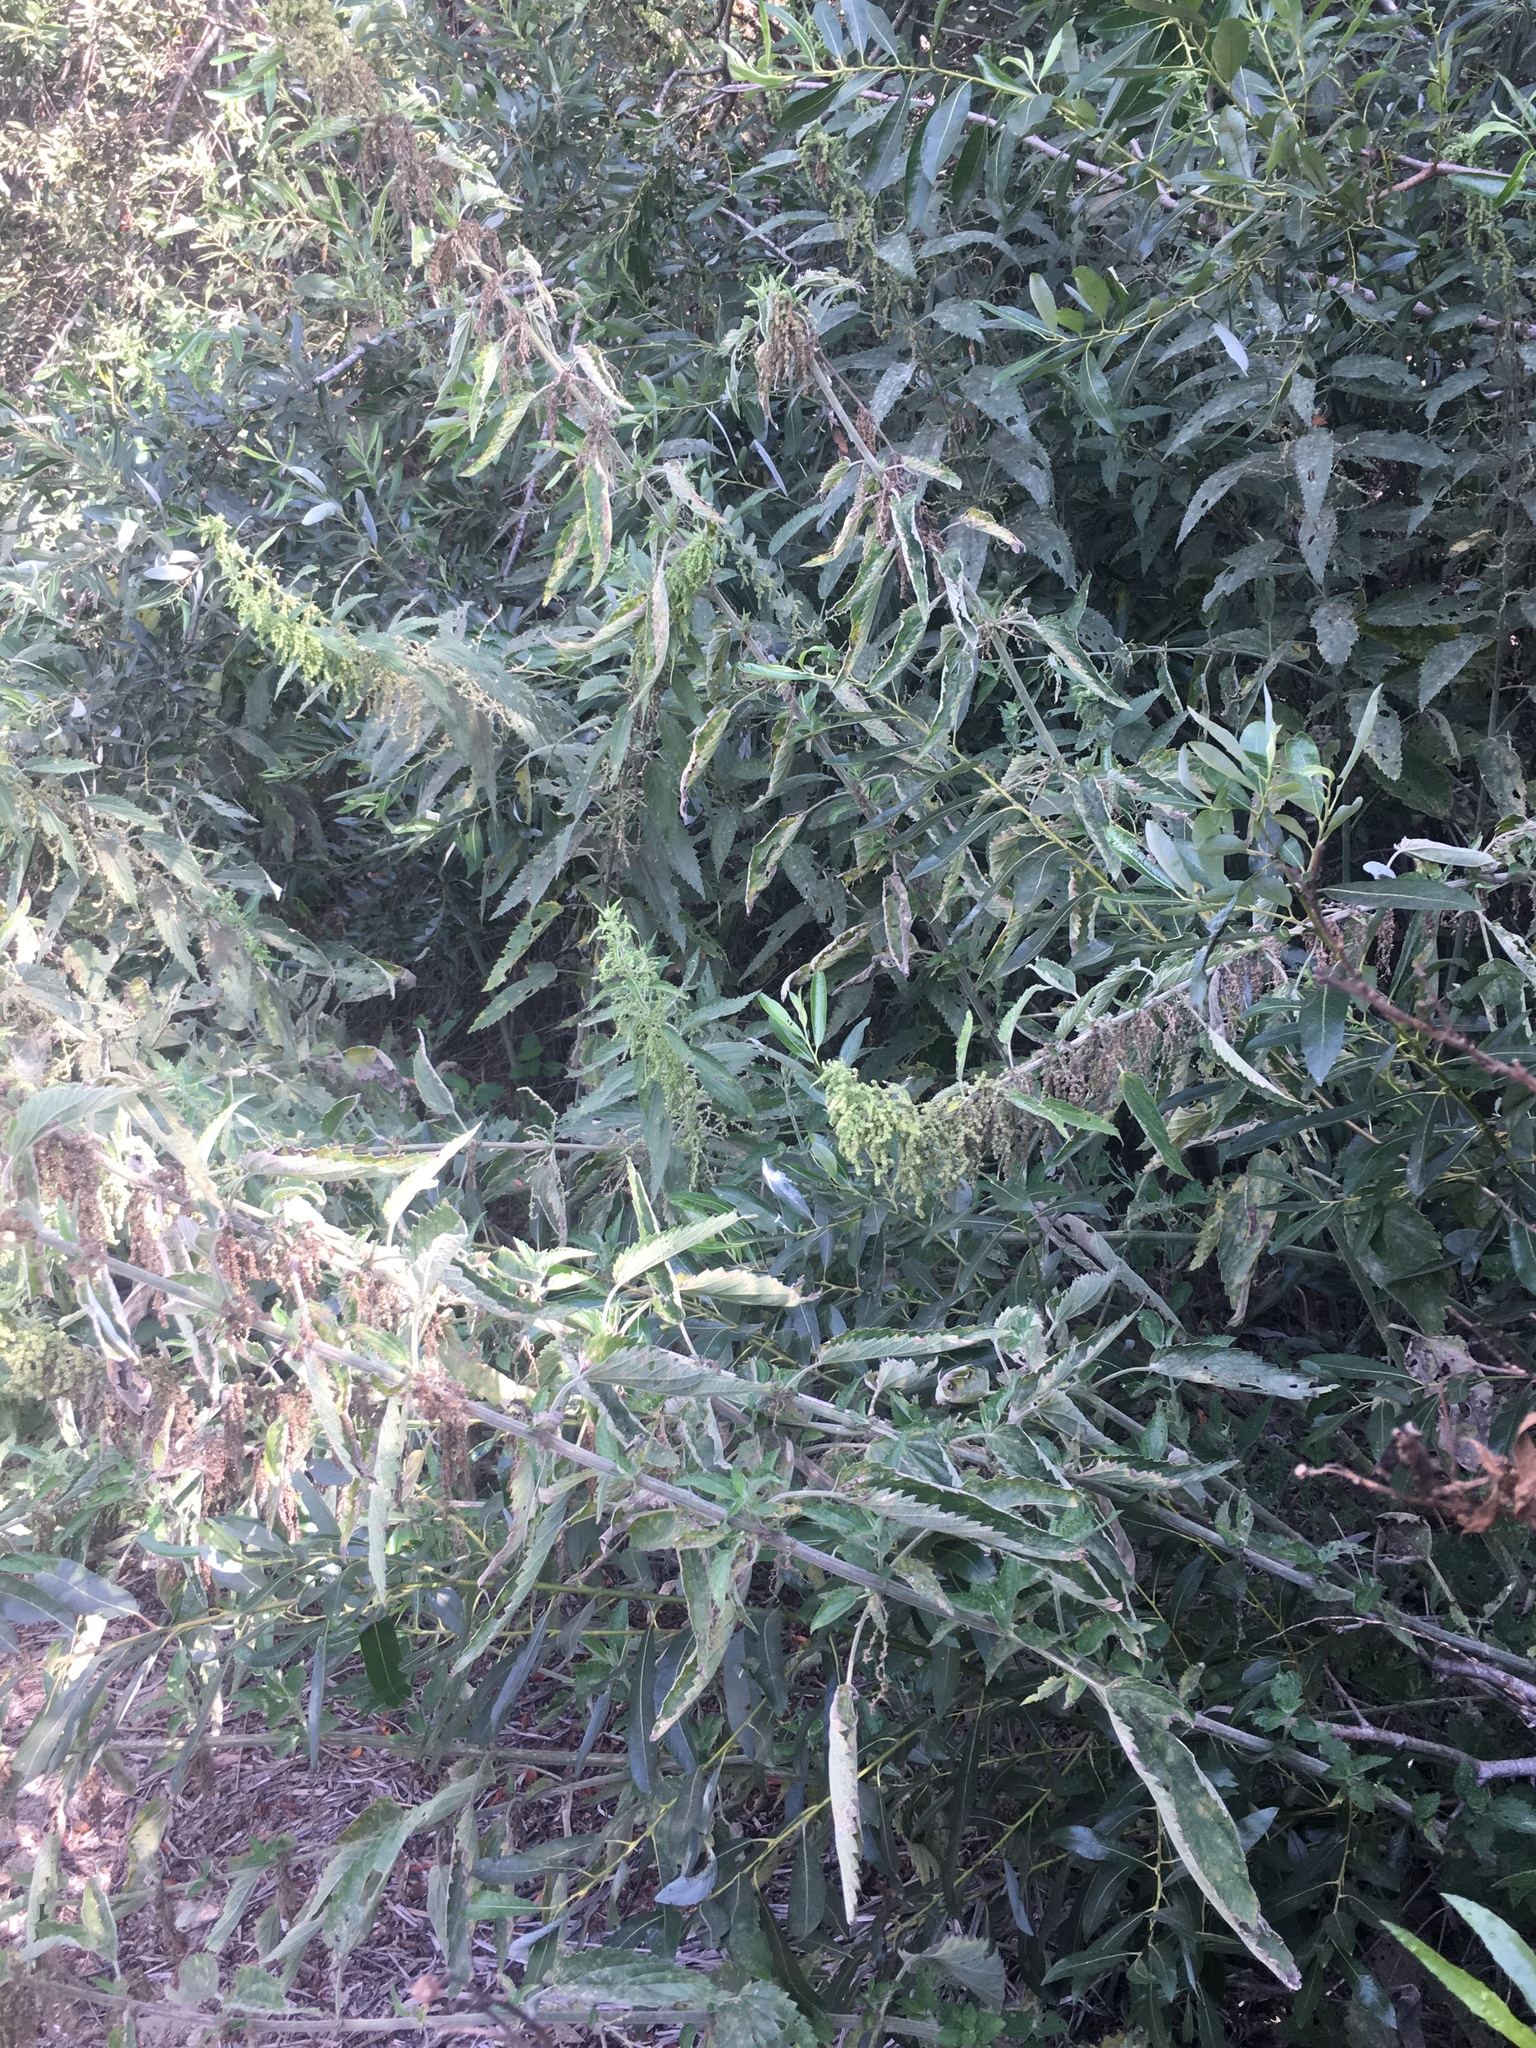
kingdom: Plantae
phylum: Tracheophyta
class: Magnoliopsida
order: Rosales
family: Urticaceae
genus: Urtica
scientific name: Urtica dioica
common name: Common nettle
